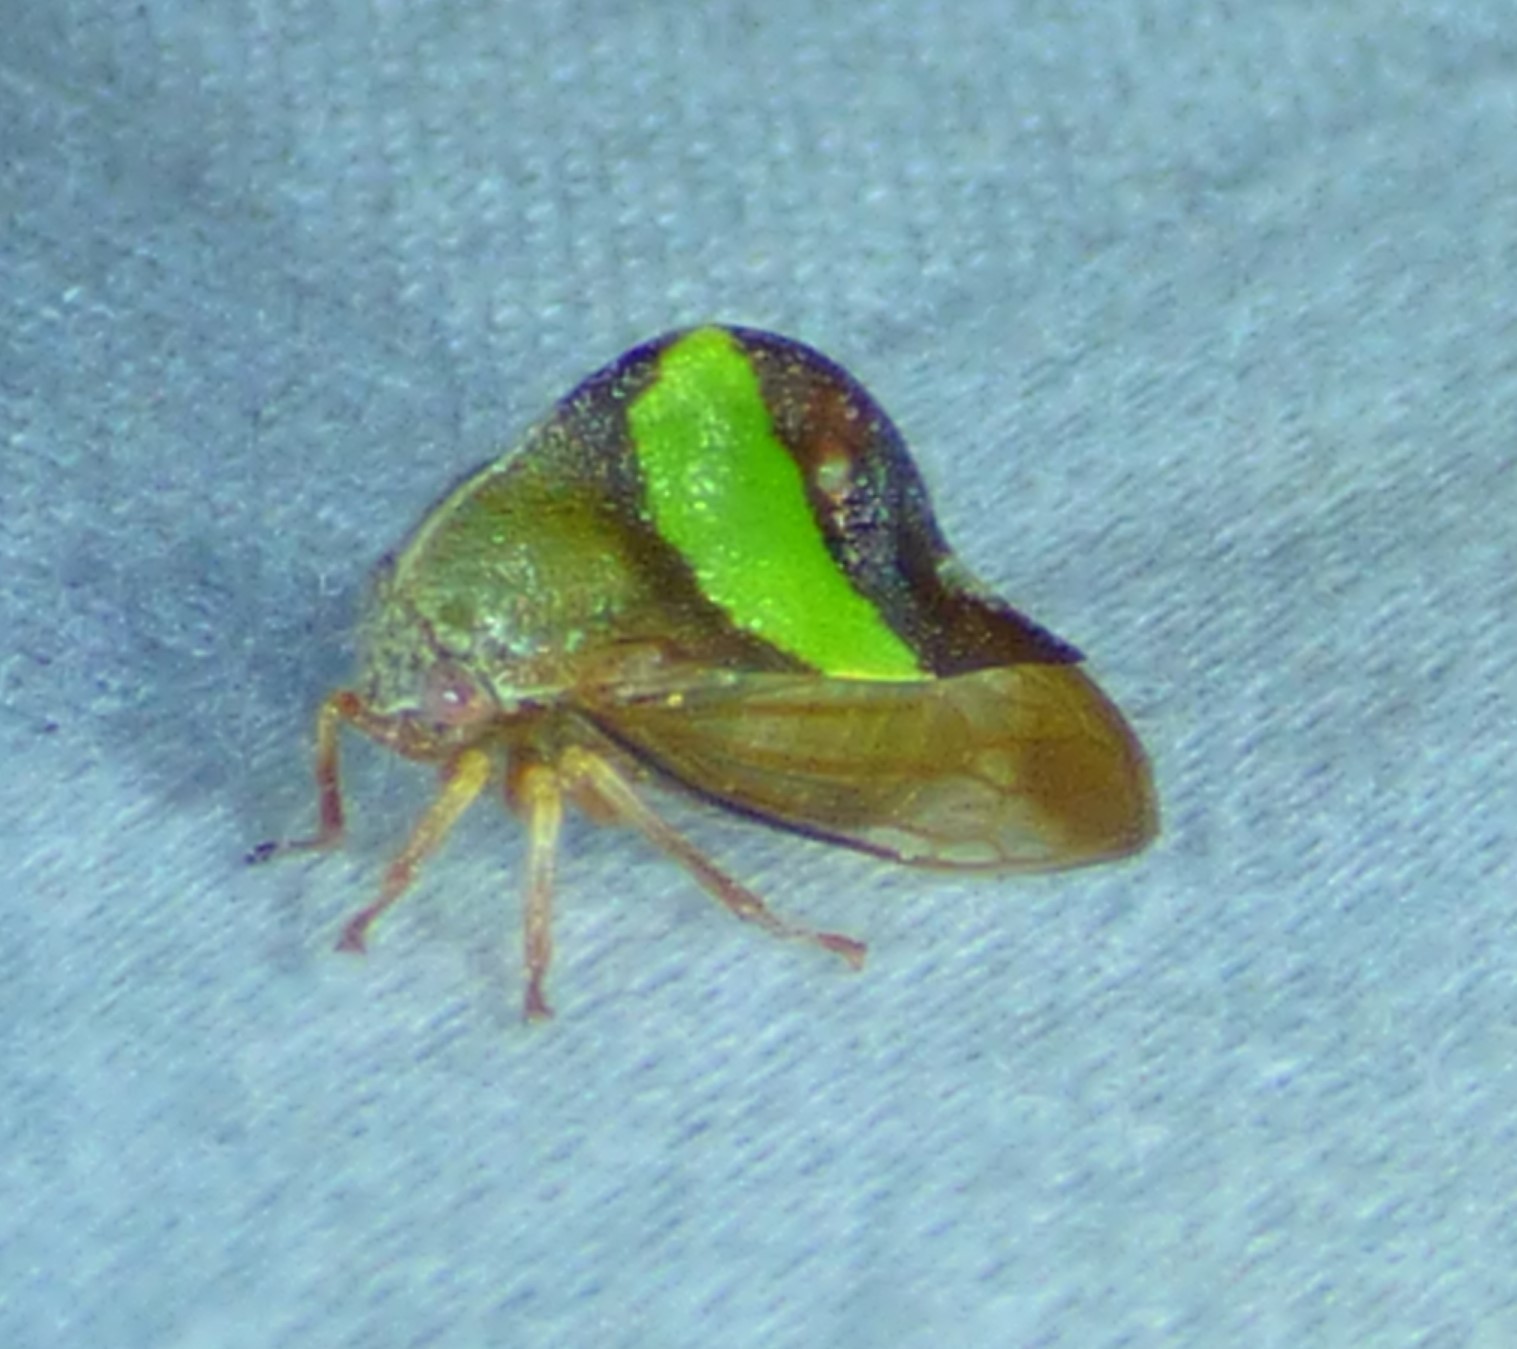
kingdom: Animalia
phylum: Arthropoda
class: Insecta
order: Hemiptera
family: Membracidae
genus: Smilia
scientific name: Smilia fasciata
